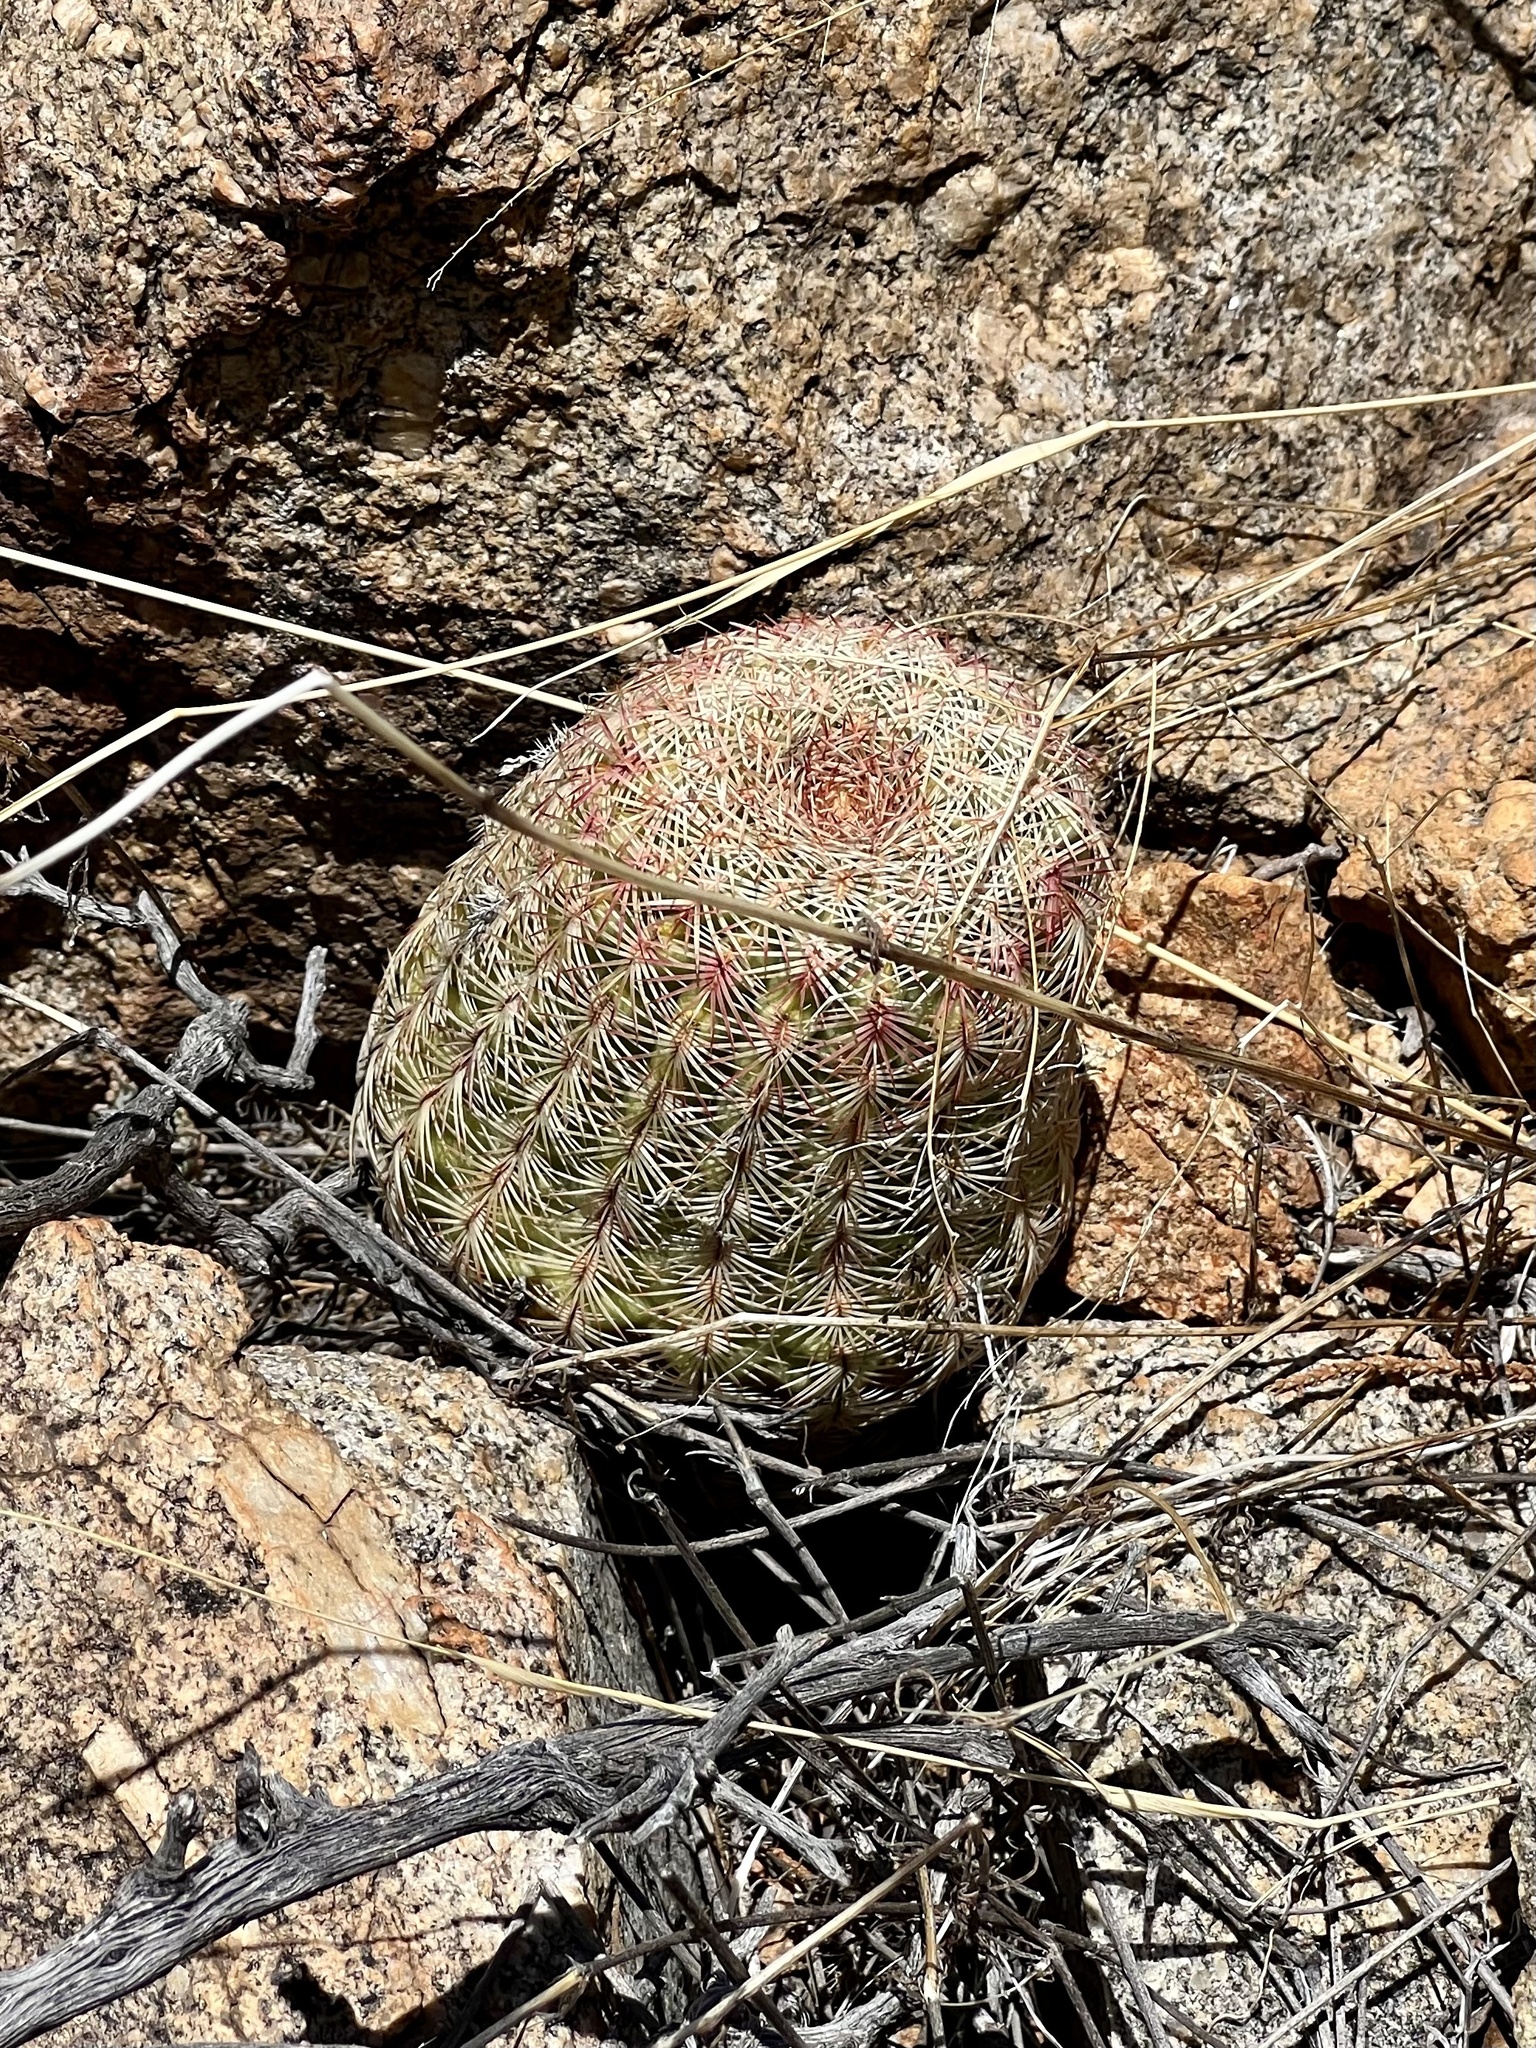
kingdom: Plantae
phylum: Tracheophyta
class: Magnoliopsida
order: Caryophyllales
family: Cactaceae
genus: Echinocereus
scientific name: Echinocereus rigidissimus
